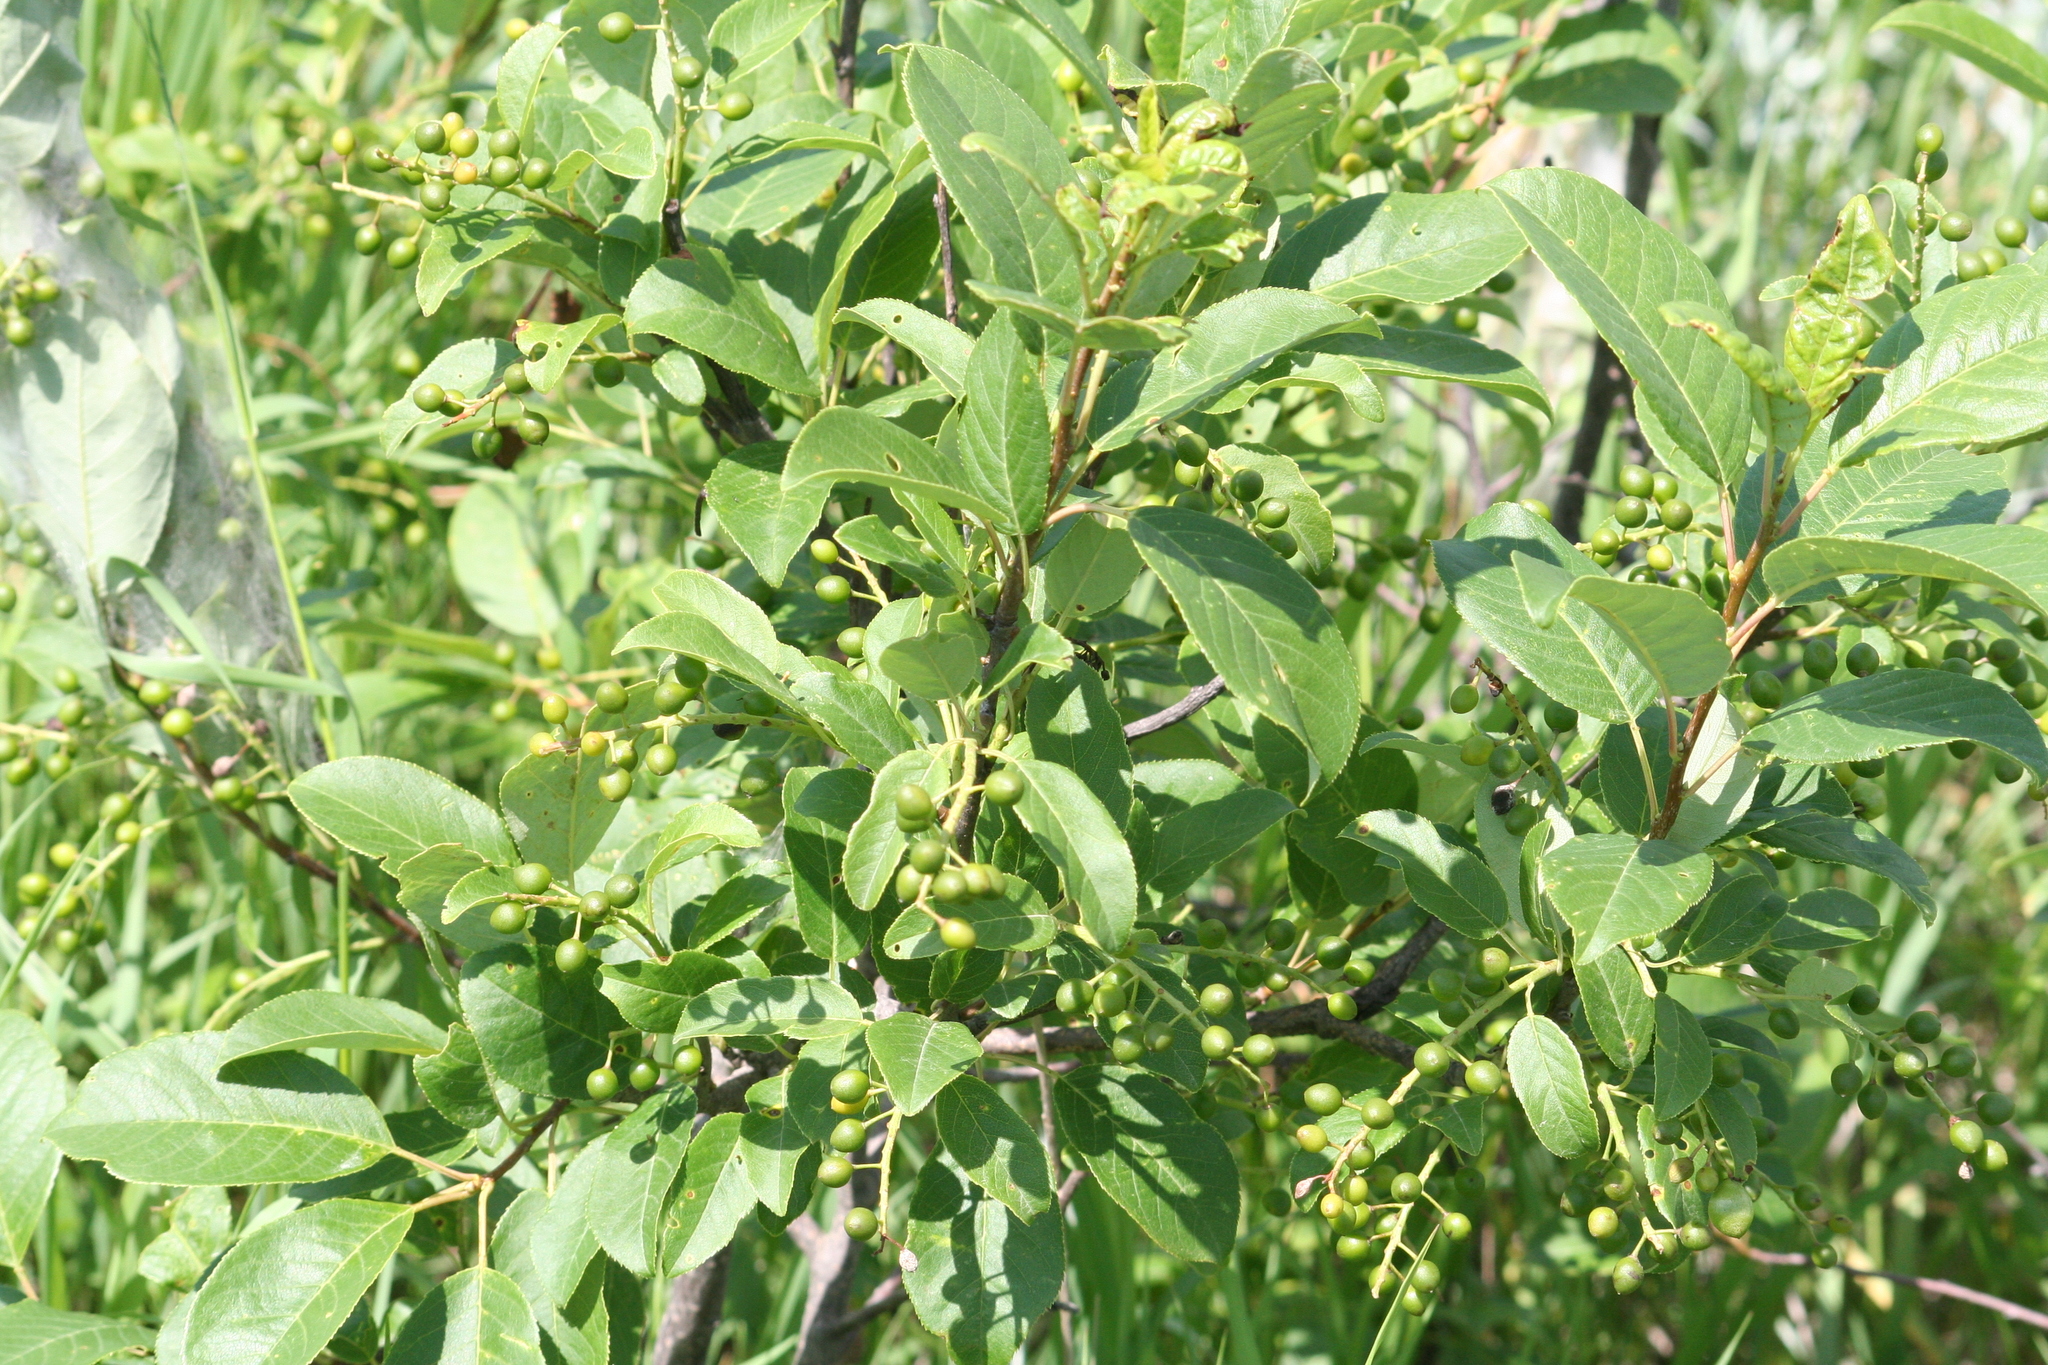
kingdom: Plantae
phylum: Tracheophyta
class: Magnoliopsida
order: Rosales
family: Rosaceae
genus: Prunus
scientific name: Prunus virginiana
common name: Chokecherry
